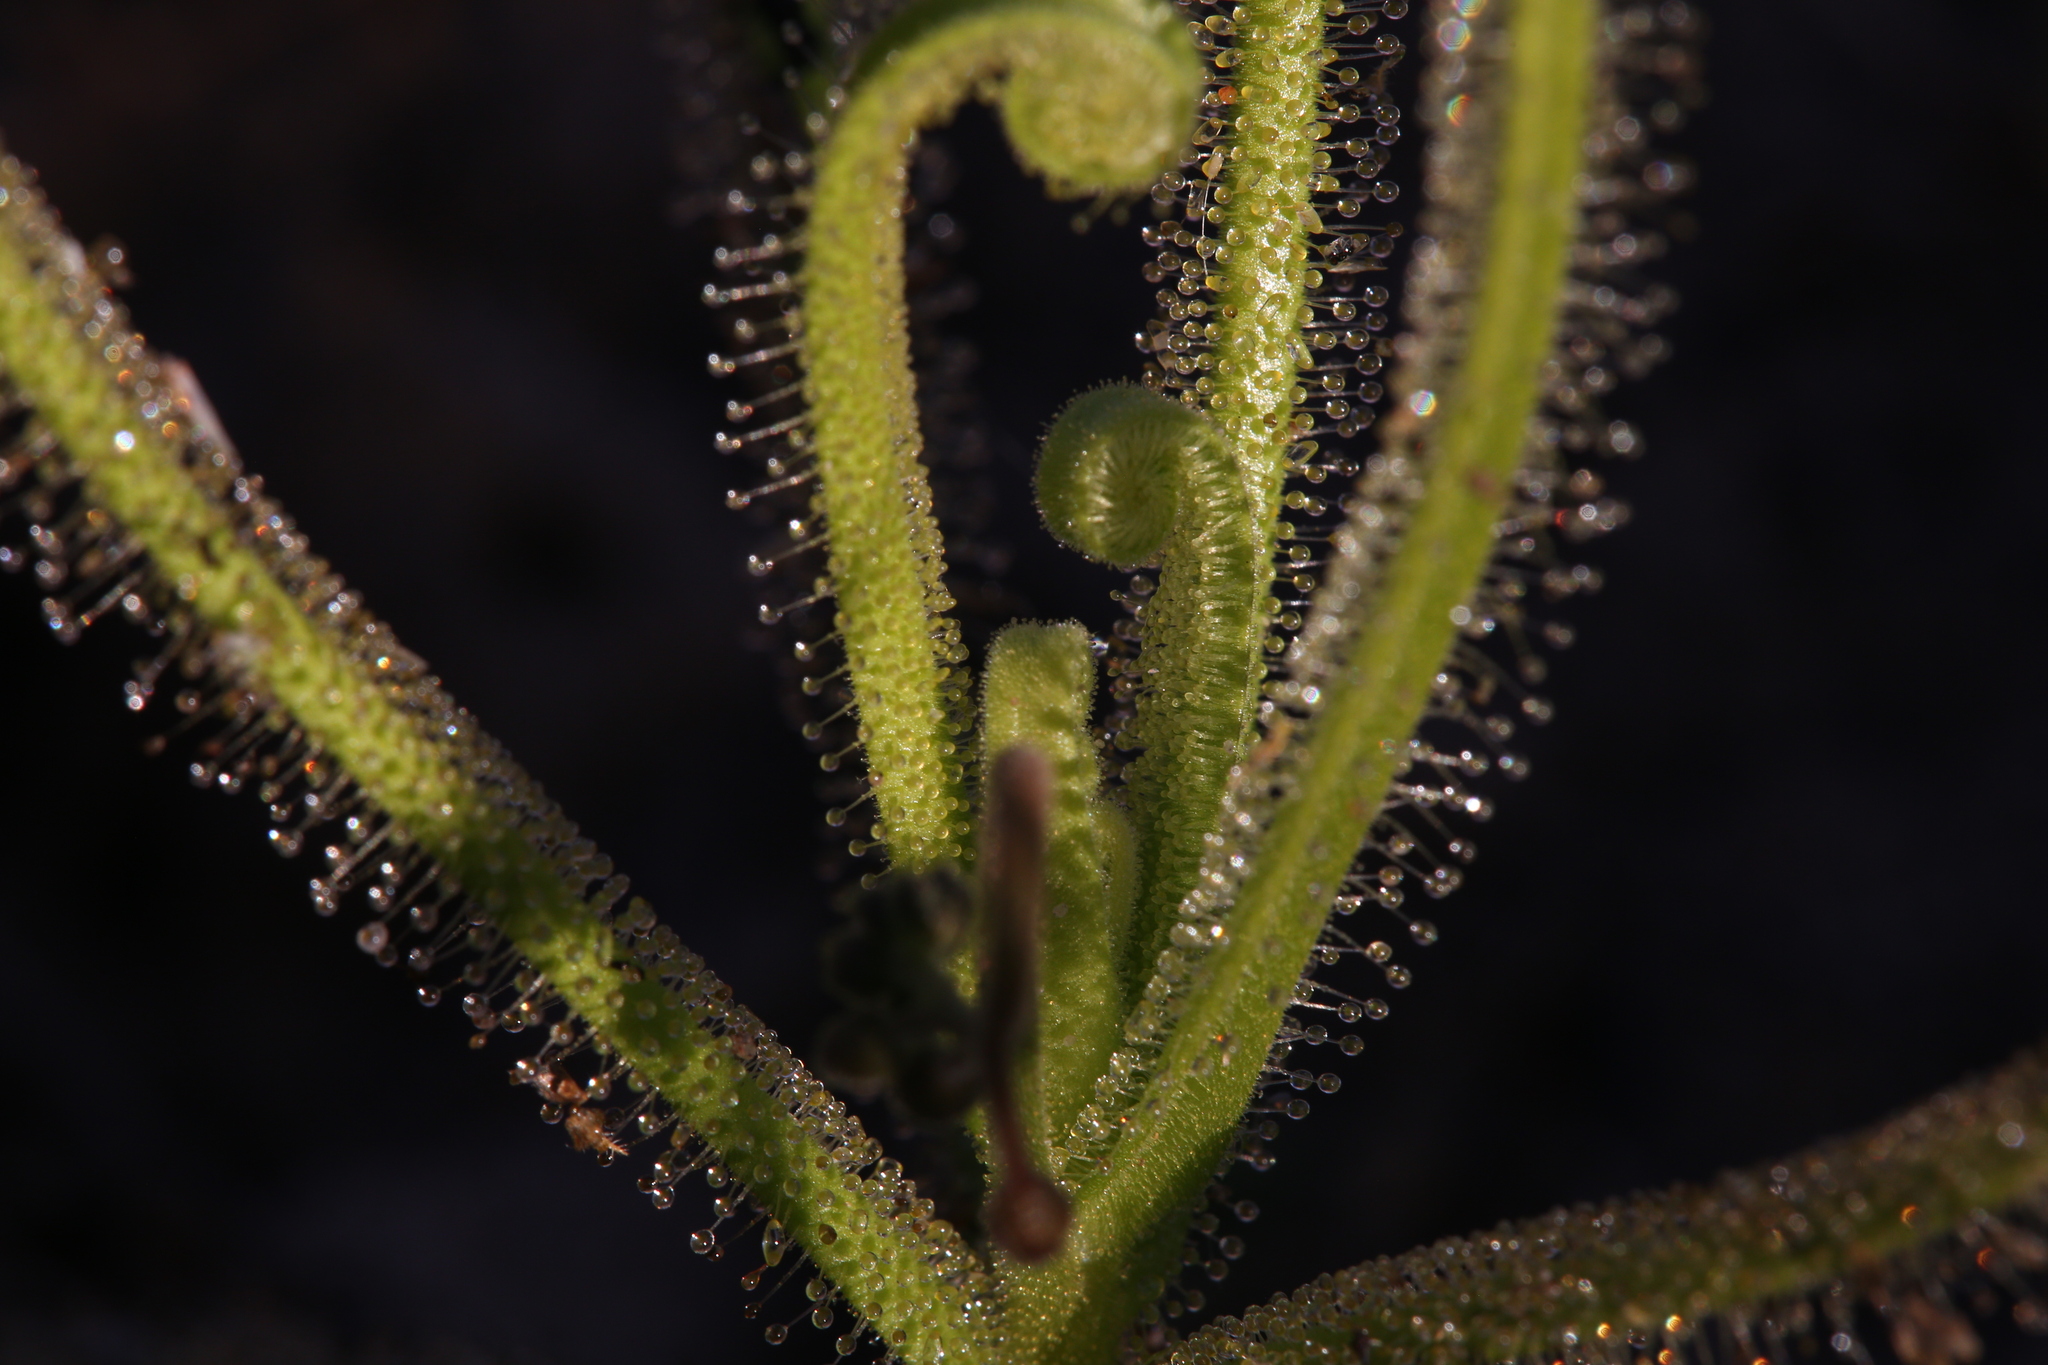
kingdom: Plantae
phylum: Tracheophyta
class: Magnoliopsida
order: Caryophyllales
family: Droseraceae
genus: Drosera
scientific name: Drosera finlaysoniana
